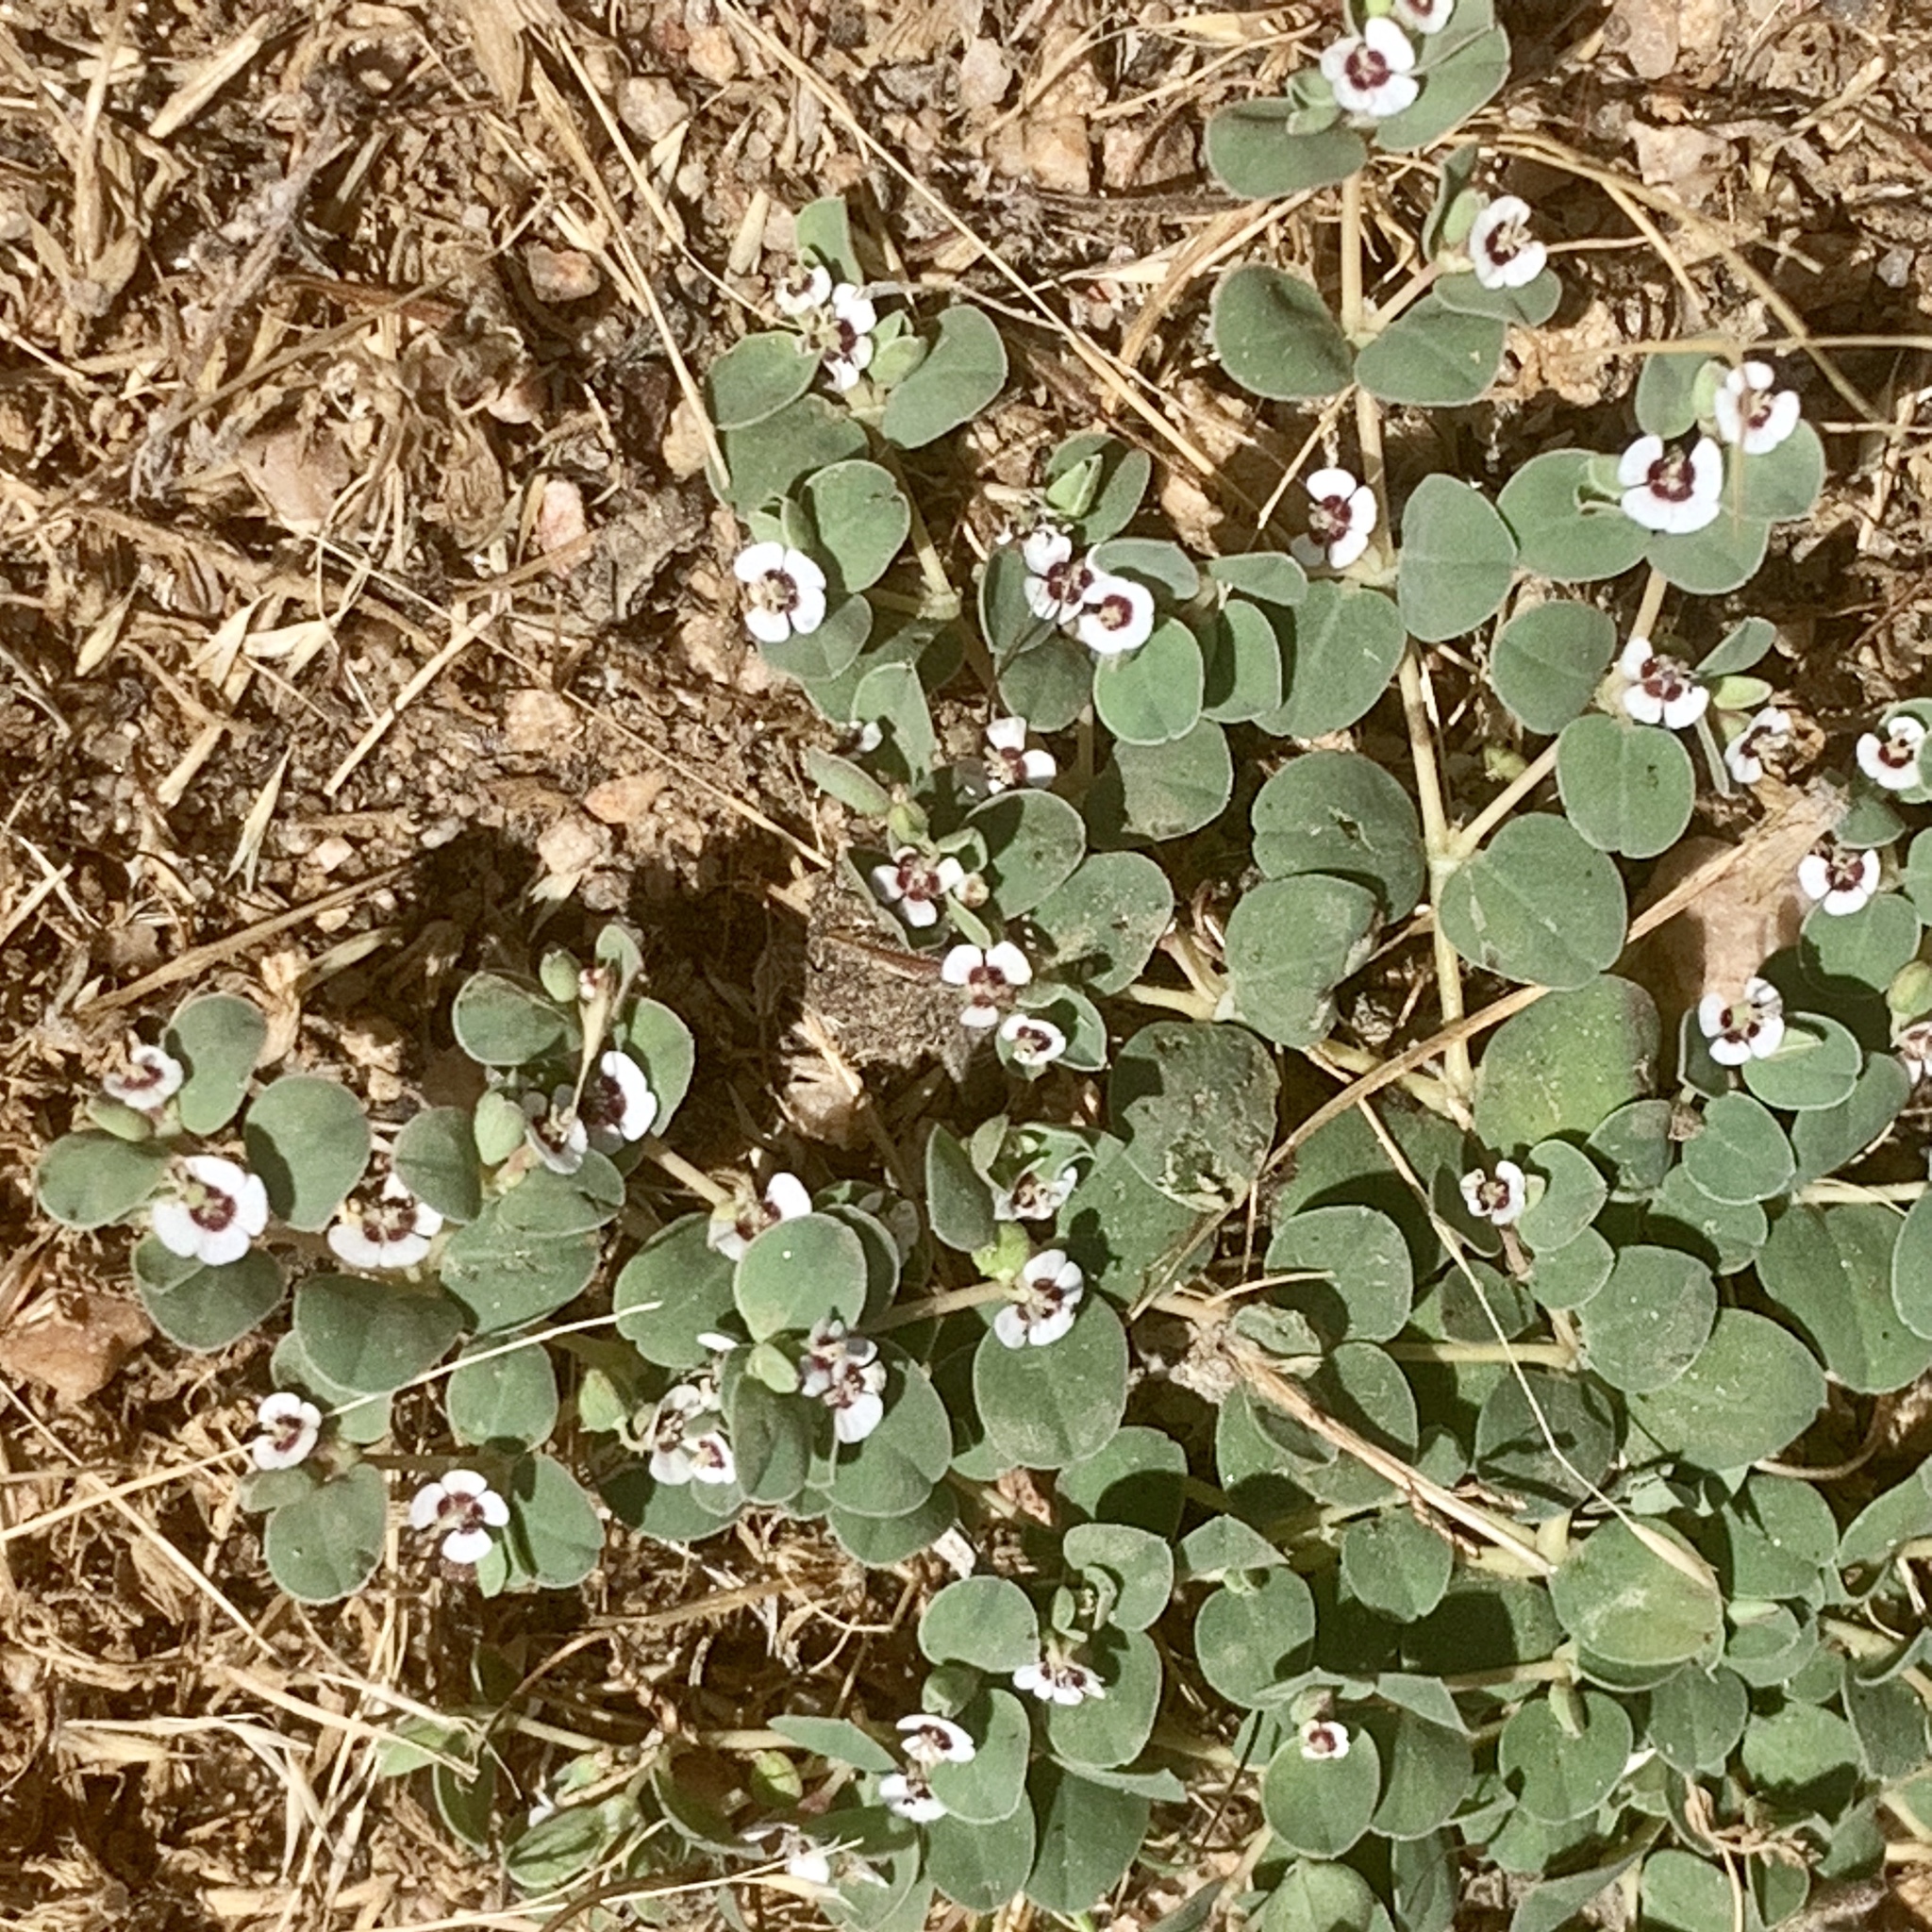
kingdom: Plantae
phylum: Tracheophyta
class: Magnoliopsida
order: Malpighiales
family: Euphorbiaceae
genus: Euphorbia
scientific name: Euphorbia albomarginata
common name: Whitemargin sandmat
